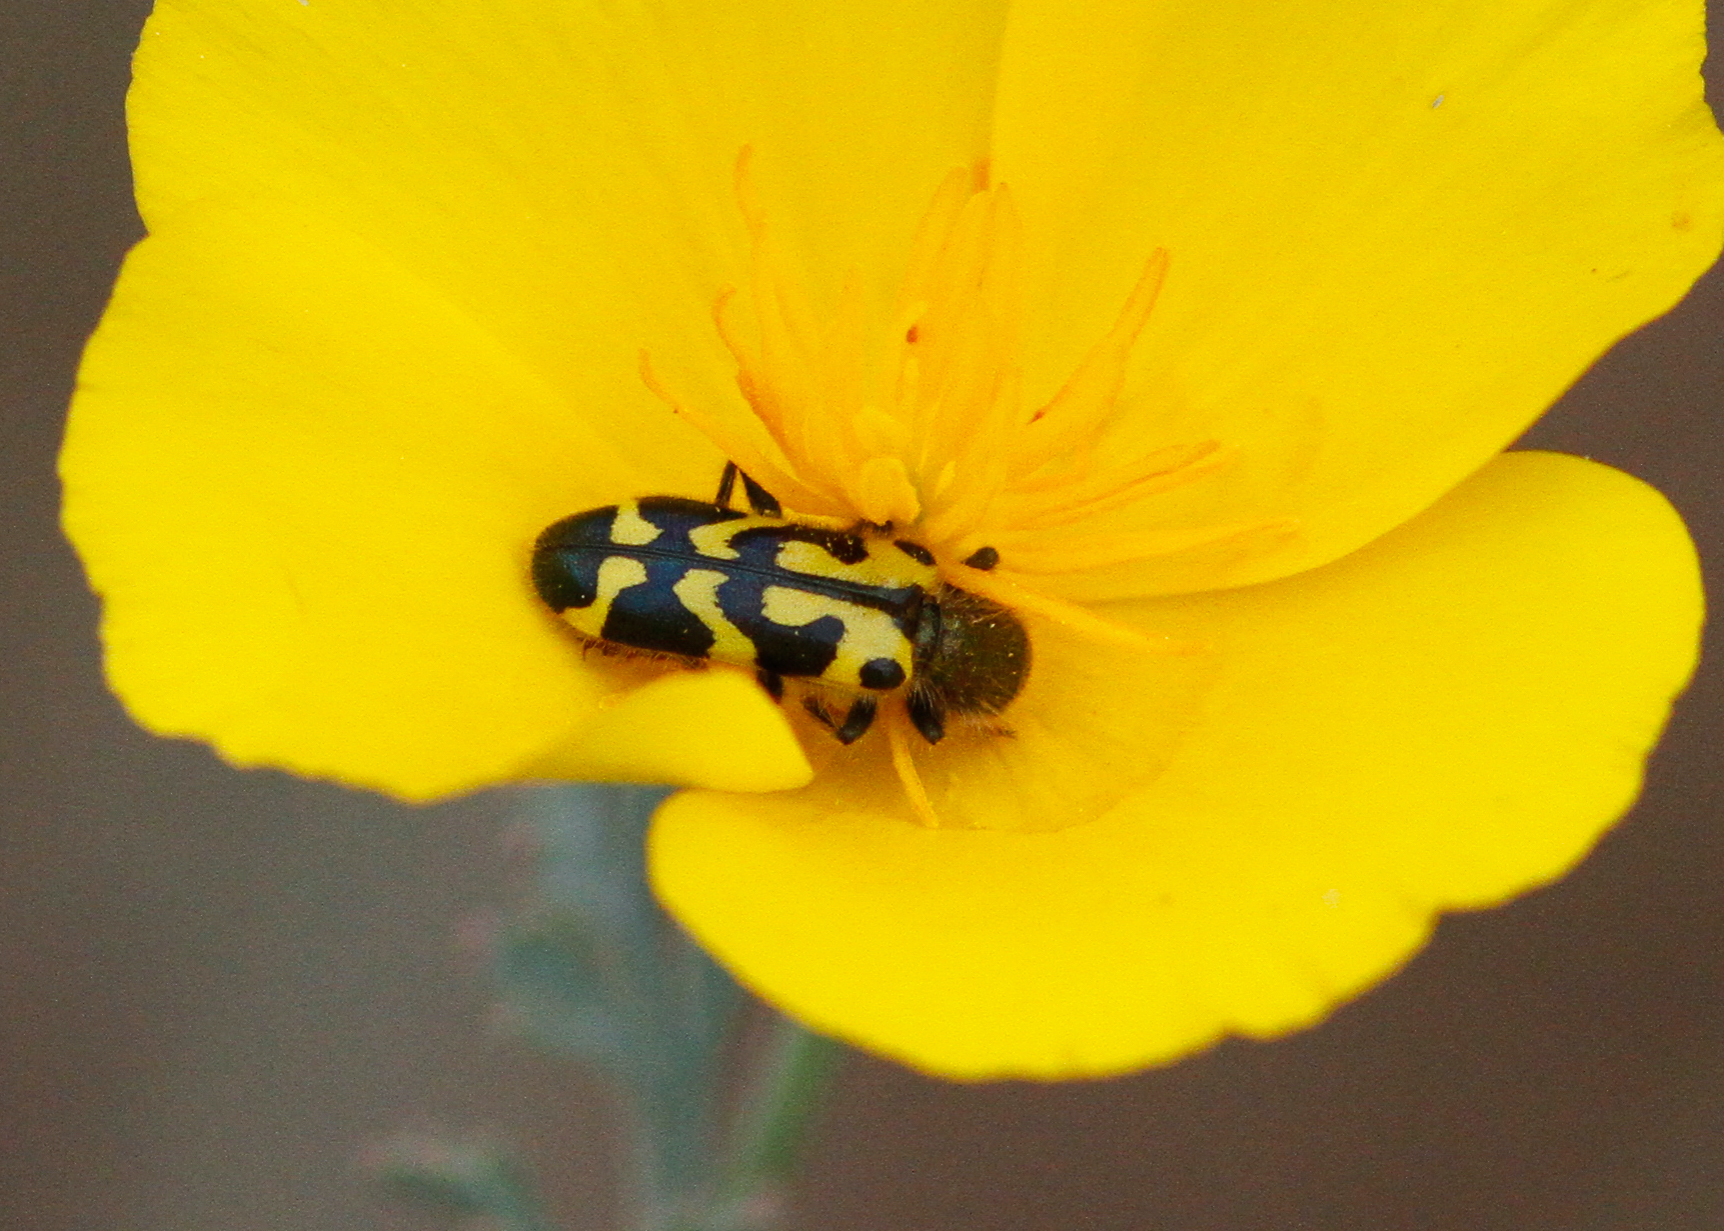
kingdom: Animalia
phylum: Arthropoda
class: Insecta
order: Coleoptera
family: Cleridae
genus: Trichodes
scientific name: Trichodes ornatus
